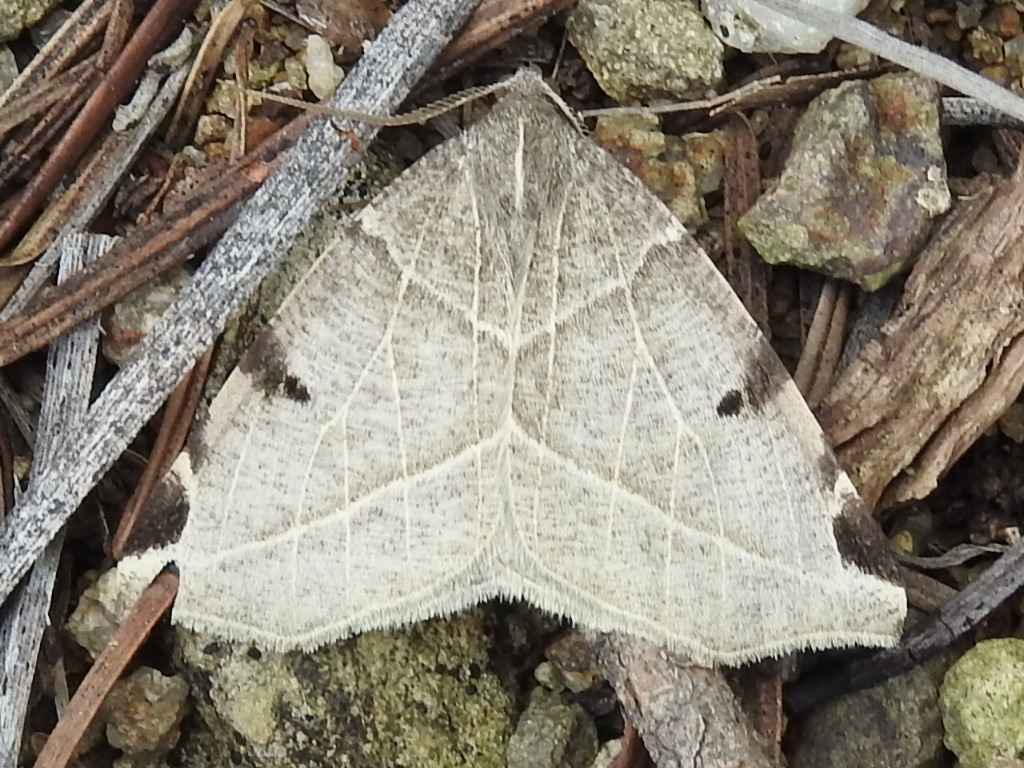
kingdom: Animalia
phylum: Arthropoda
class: Insecta
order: Lepidoptera
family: Geometridae
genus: Neoterpes
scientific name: Neoterpes graefiaria
